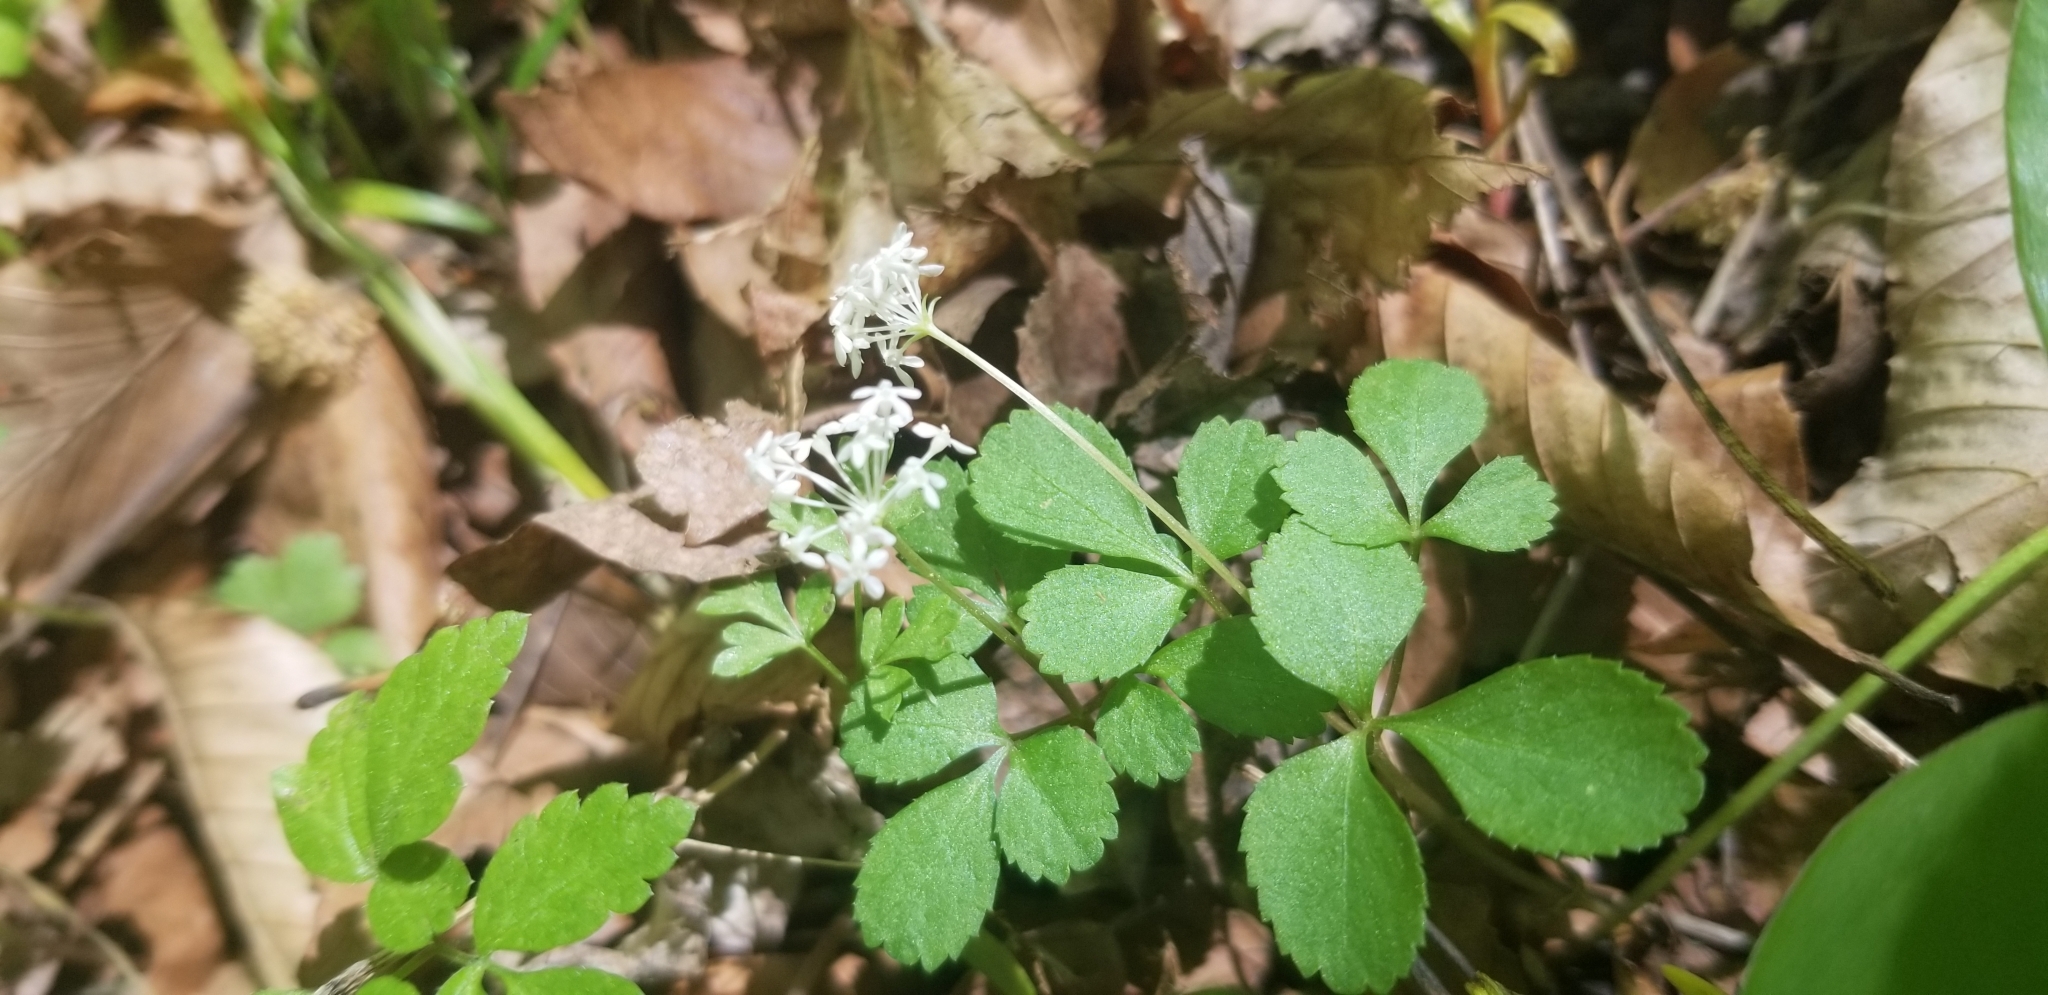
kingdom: Plantae
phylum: Tracheophyta
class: Magnoliopsida
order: Apiales
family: Araliaceae
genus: Panax
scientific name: Panax trifolius
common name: Dwarf ginseng
